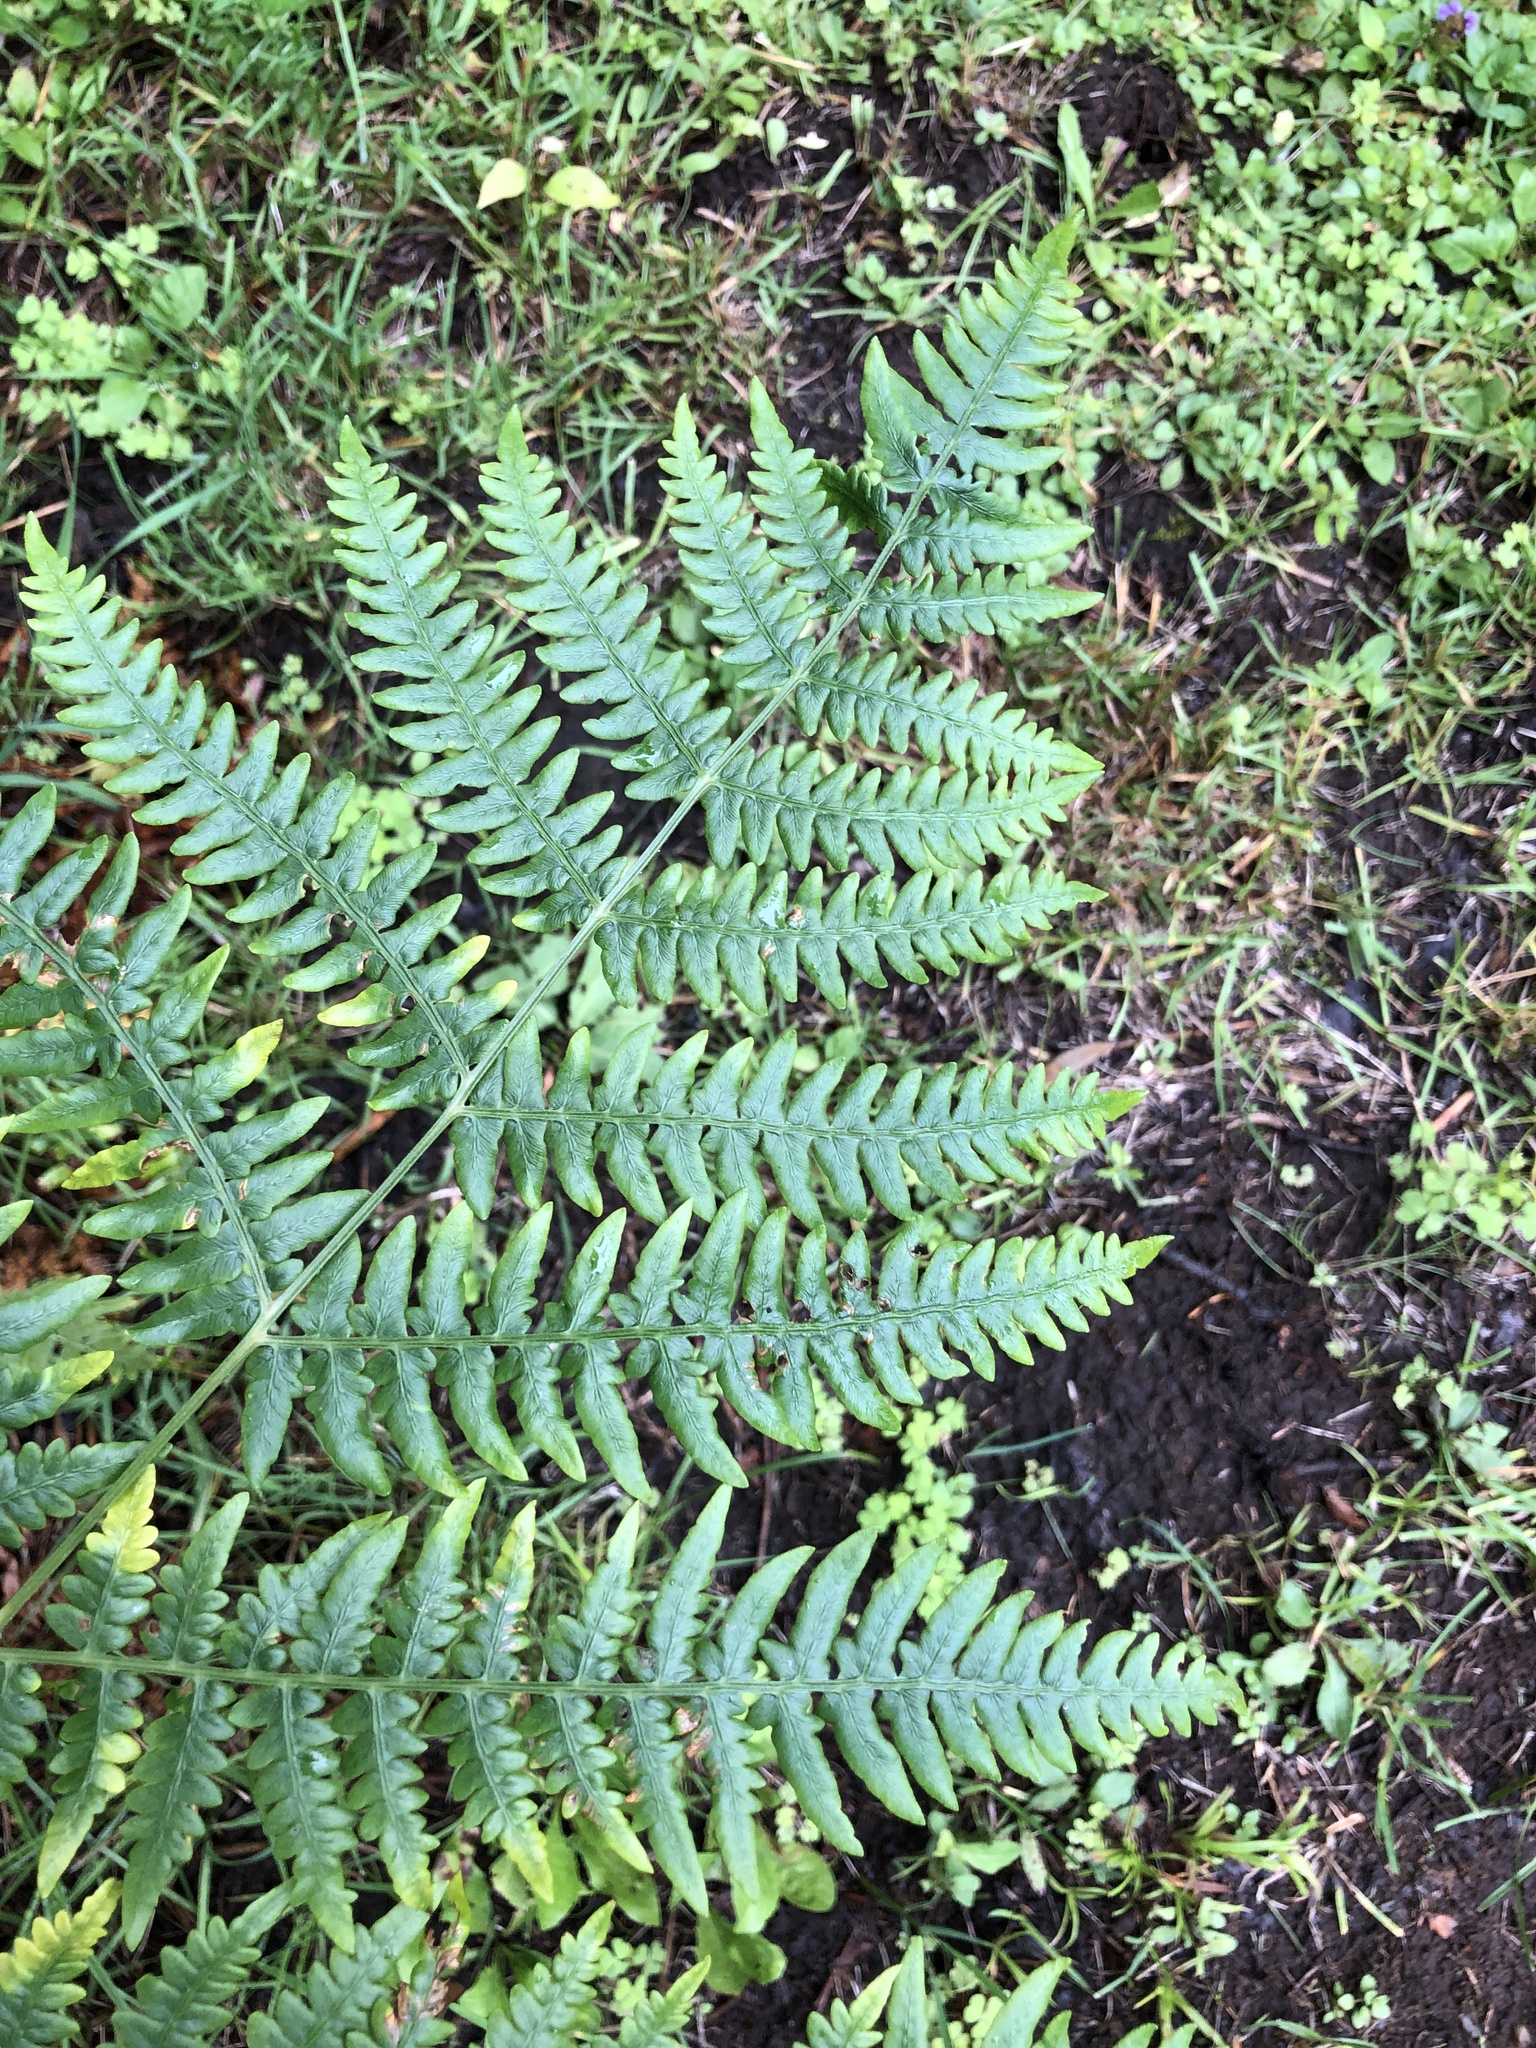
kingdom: Plantae
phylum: Tracheophyta
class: Polypodiopsida
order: Polypodiales
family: Dennstaedtiaceae
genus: Pteridium
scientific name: Pteridium aquilinum
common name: Bracken
